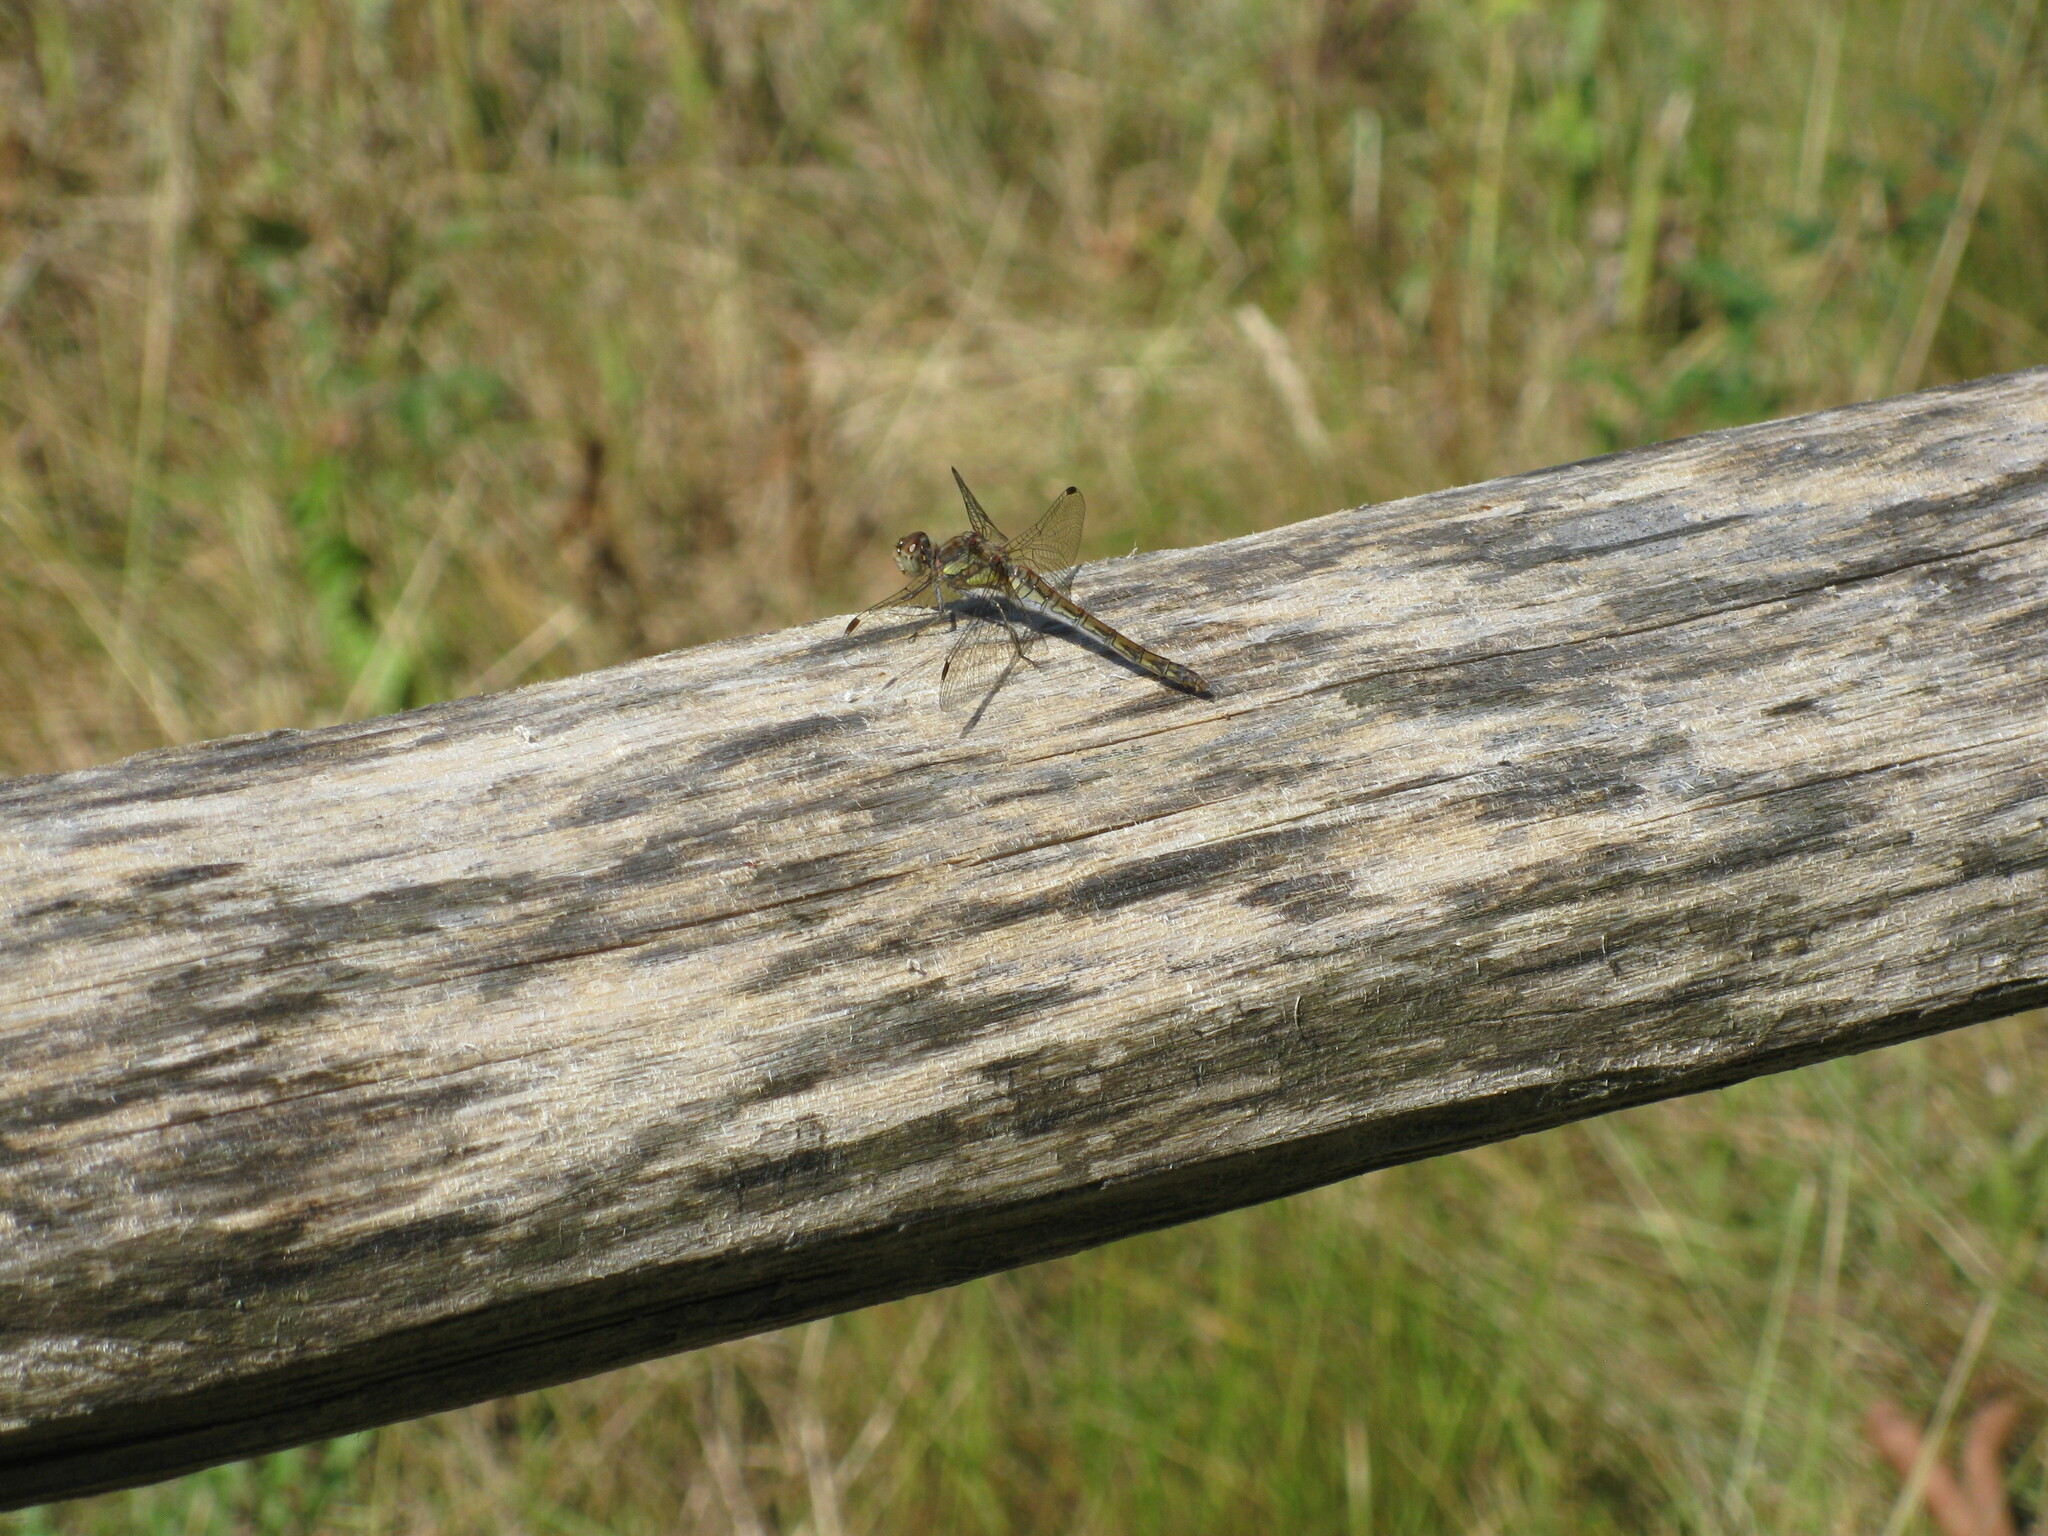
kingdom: Animalia
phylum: Arthropoda
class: Insecta
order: Odonata
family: Libellulidae
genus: Sympetrum
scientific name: Sympetrum striolatum
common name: Common darter
